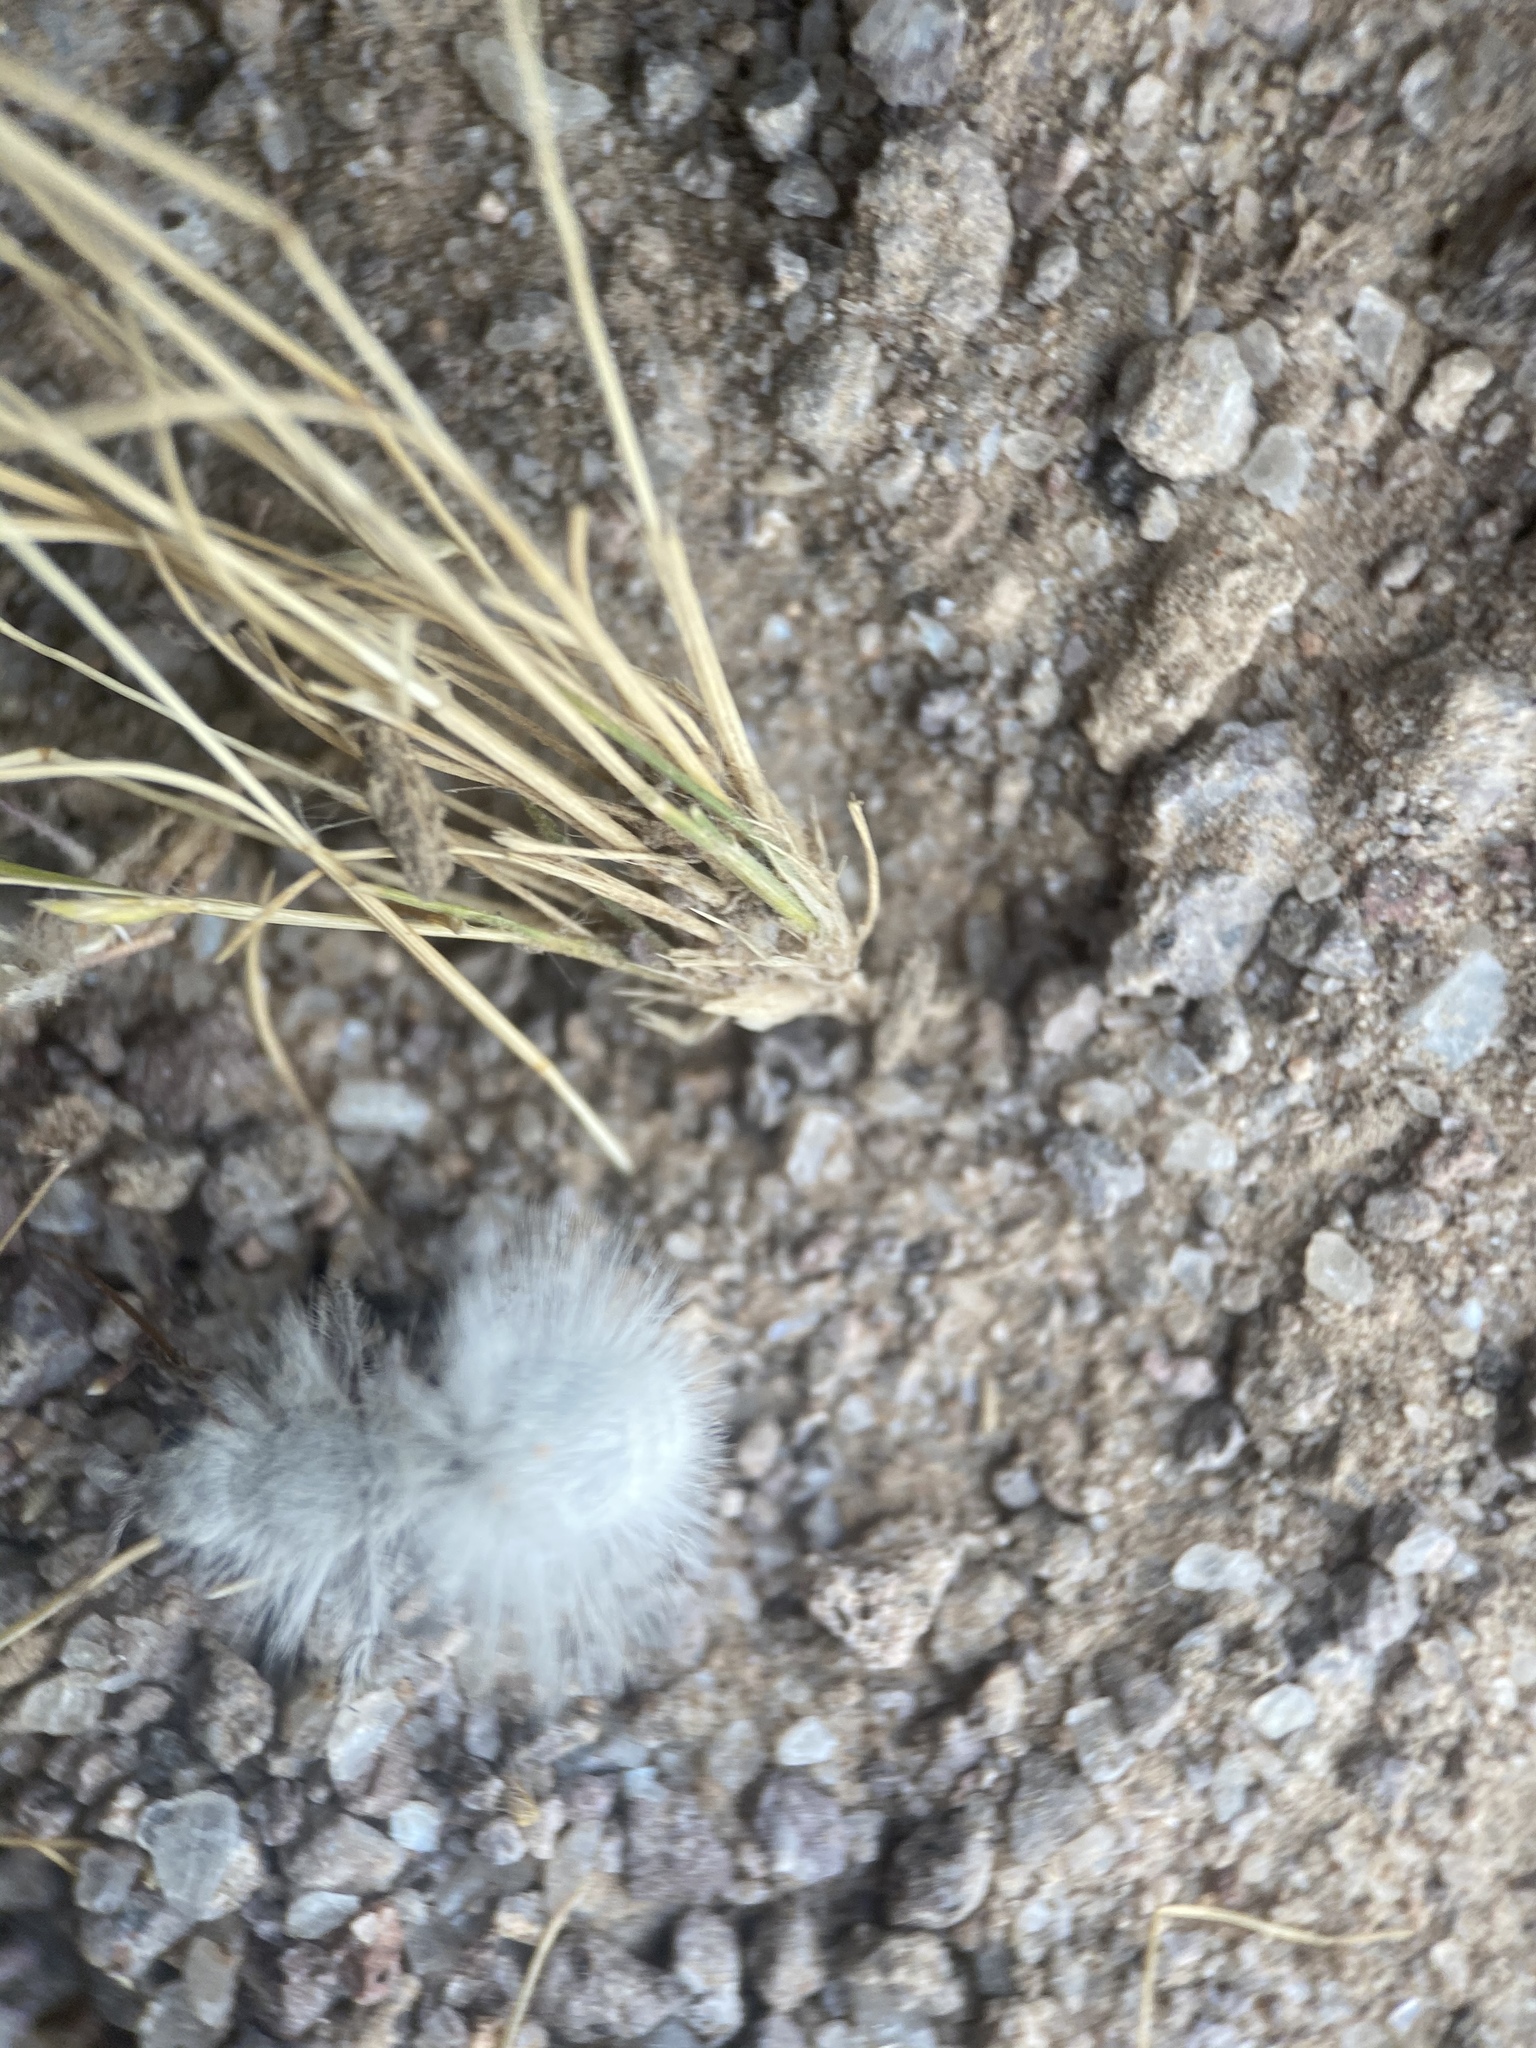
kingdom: Animalia
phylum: Arthropoda
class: Insecta
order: Hymenoptera
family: Mutillidae
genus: Dasymutilla
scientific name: Dasymutilla gloriosa
